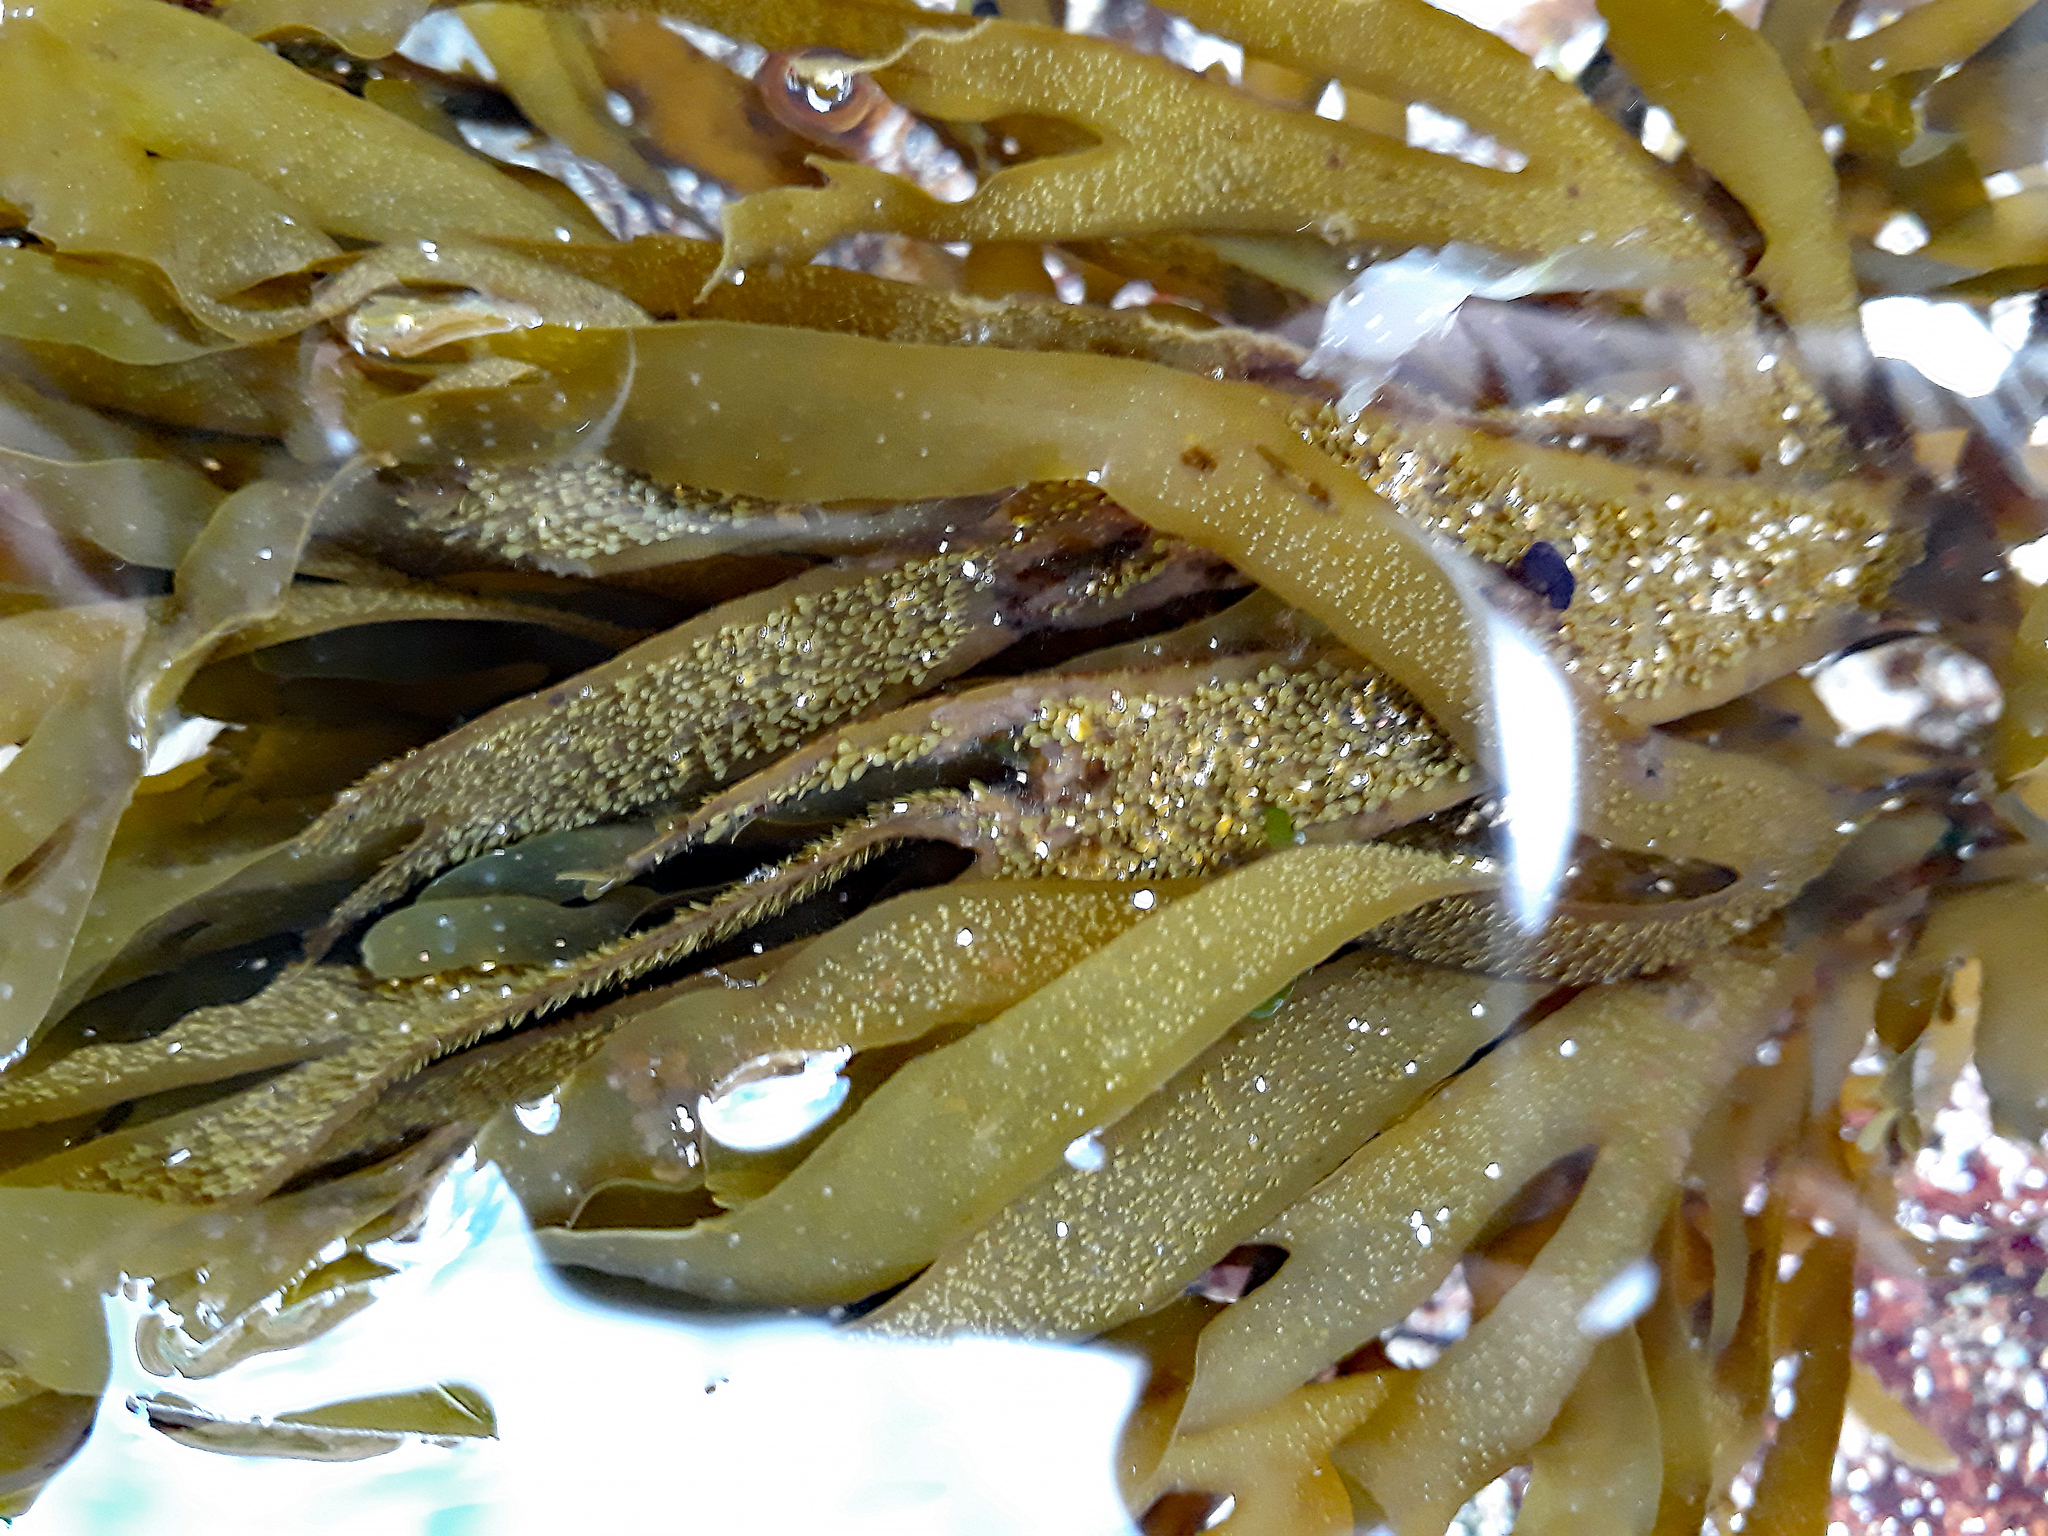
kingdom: Chromista
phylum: Ochrophyta
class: Phaeophyceae
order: Dictyotales
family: Dictyotaceae
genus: Dictyota
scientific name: Dictyota kunthii
